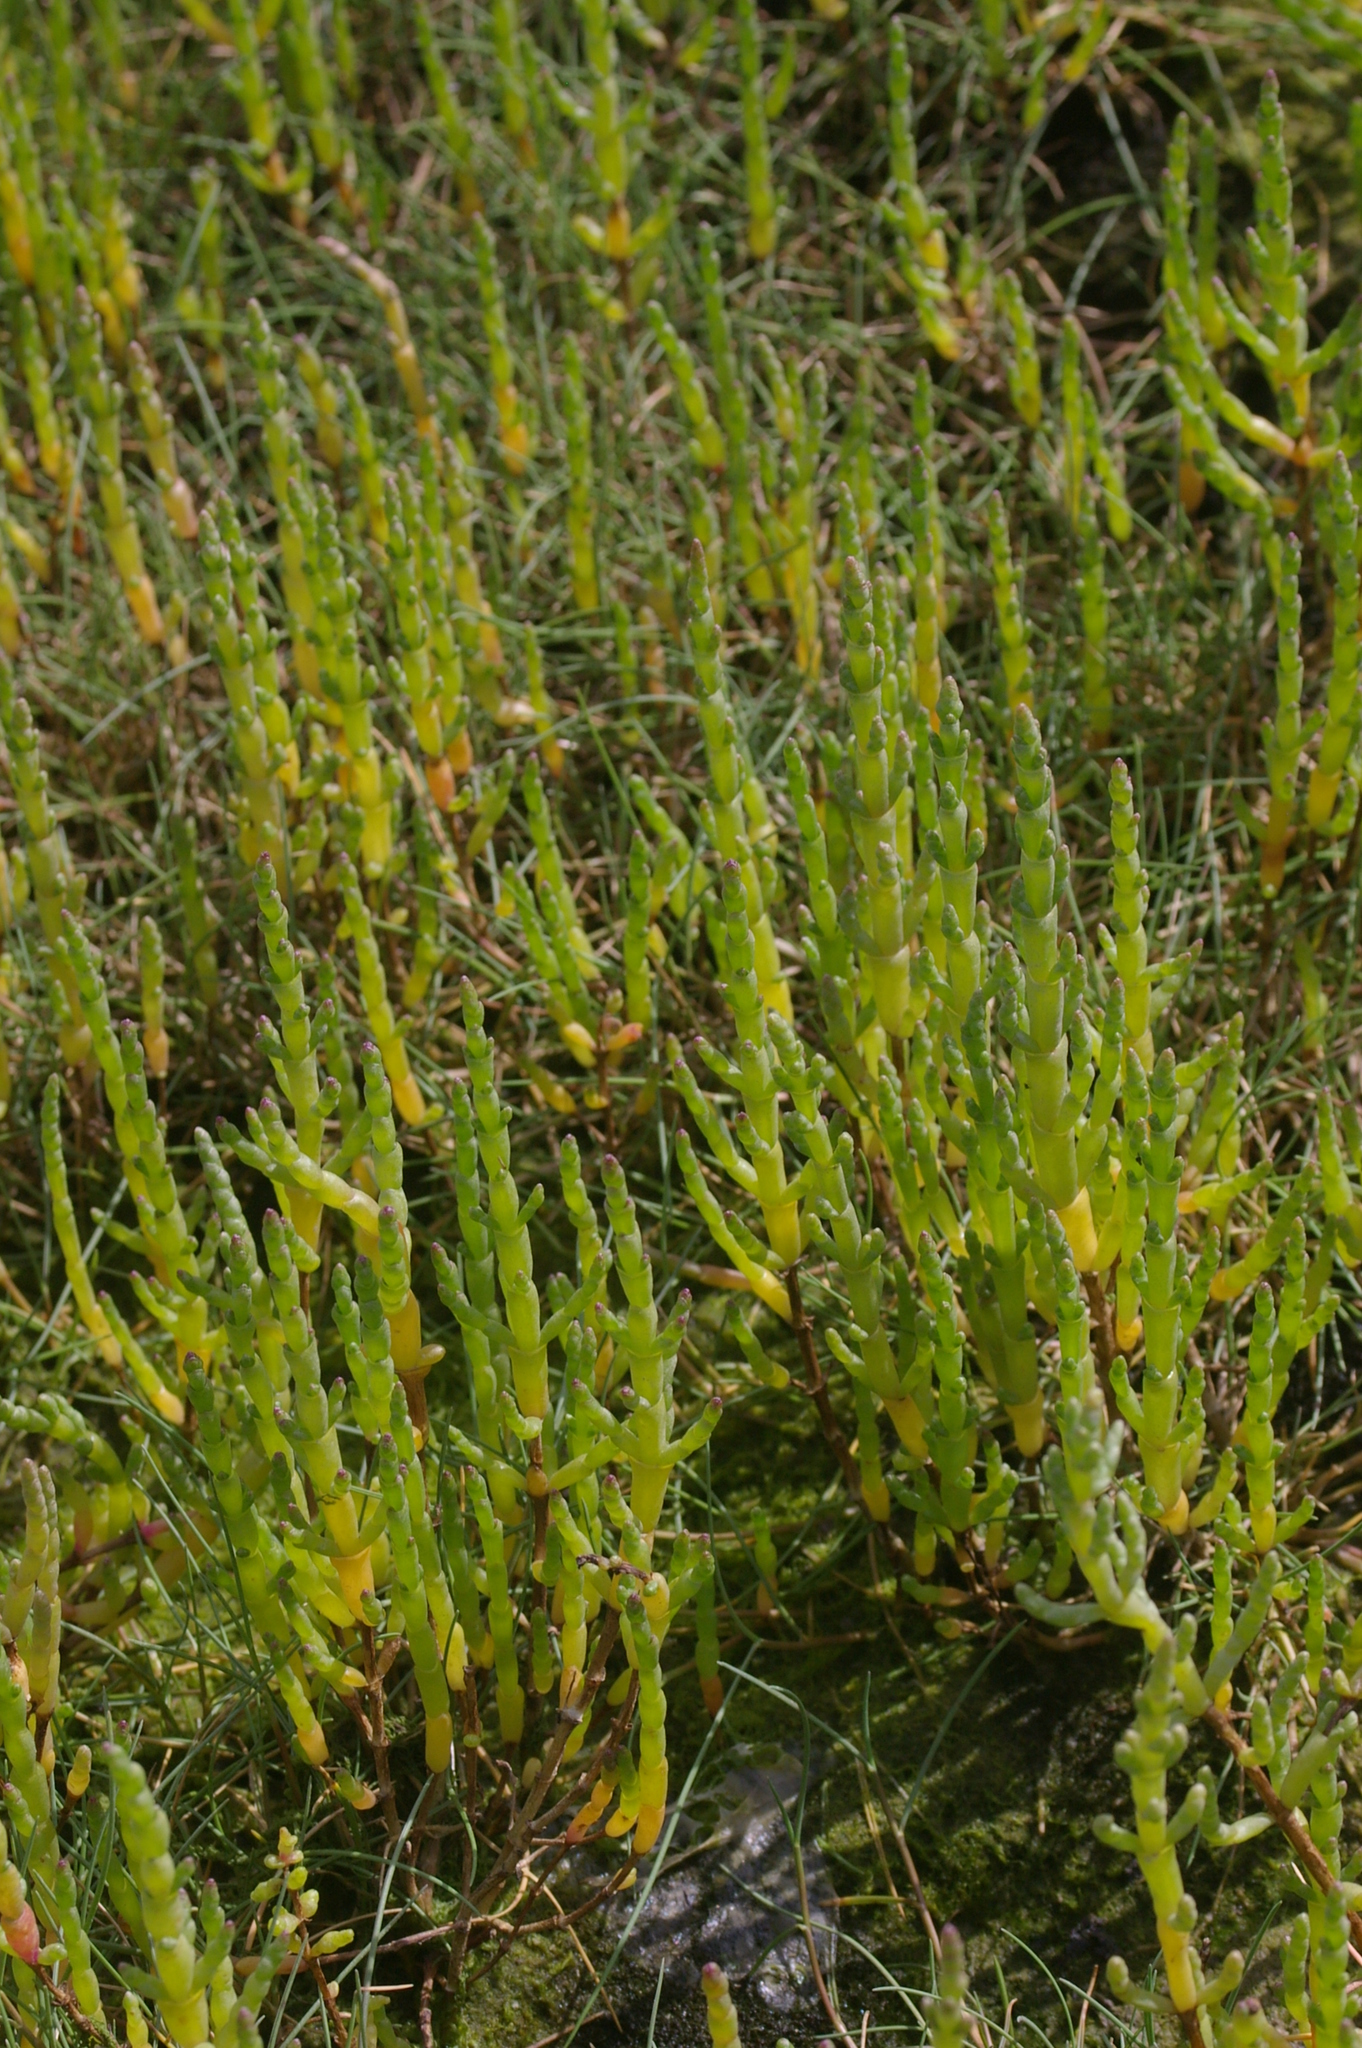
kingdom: Plantae
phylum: Tracheophyta
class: Magnoliopsida
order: Caryophyllales
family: Amaranthaceae
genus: Salicornia
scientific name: Salicornia europaea
